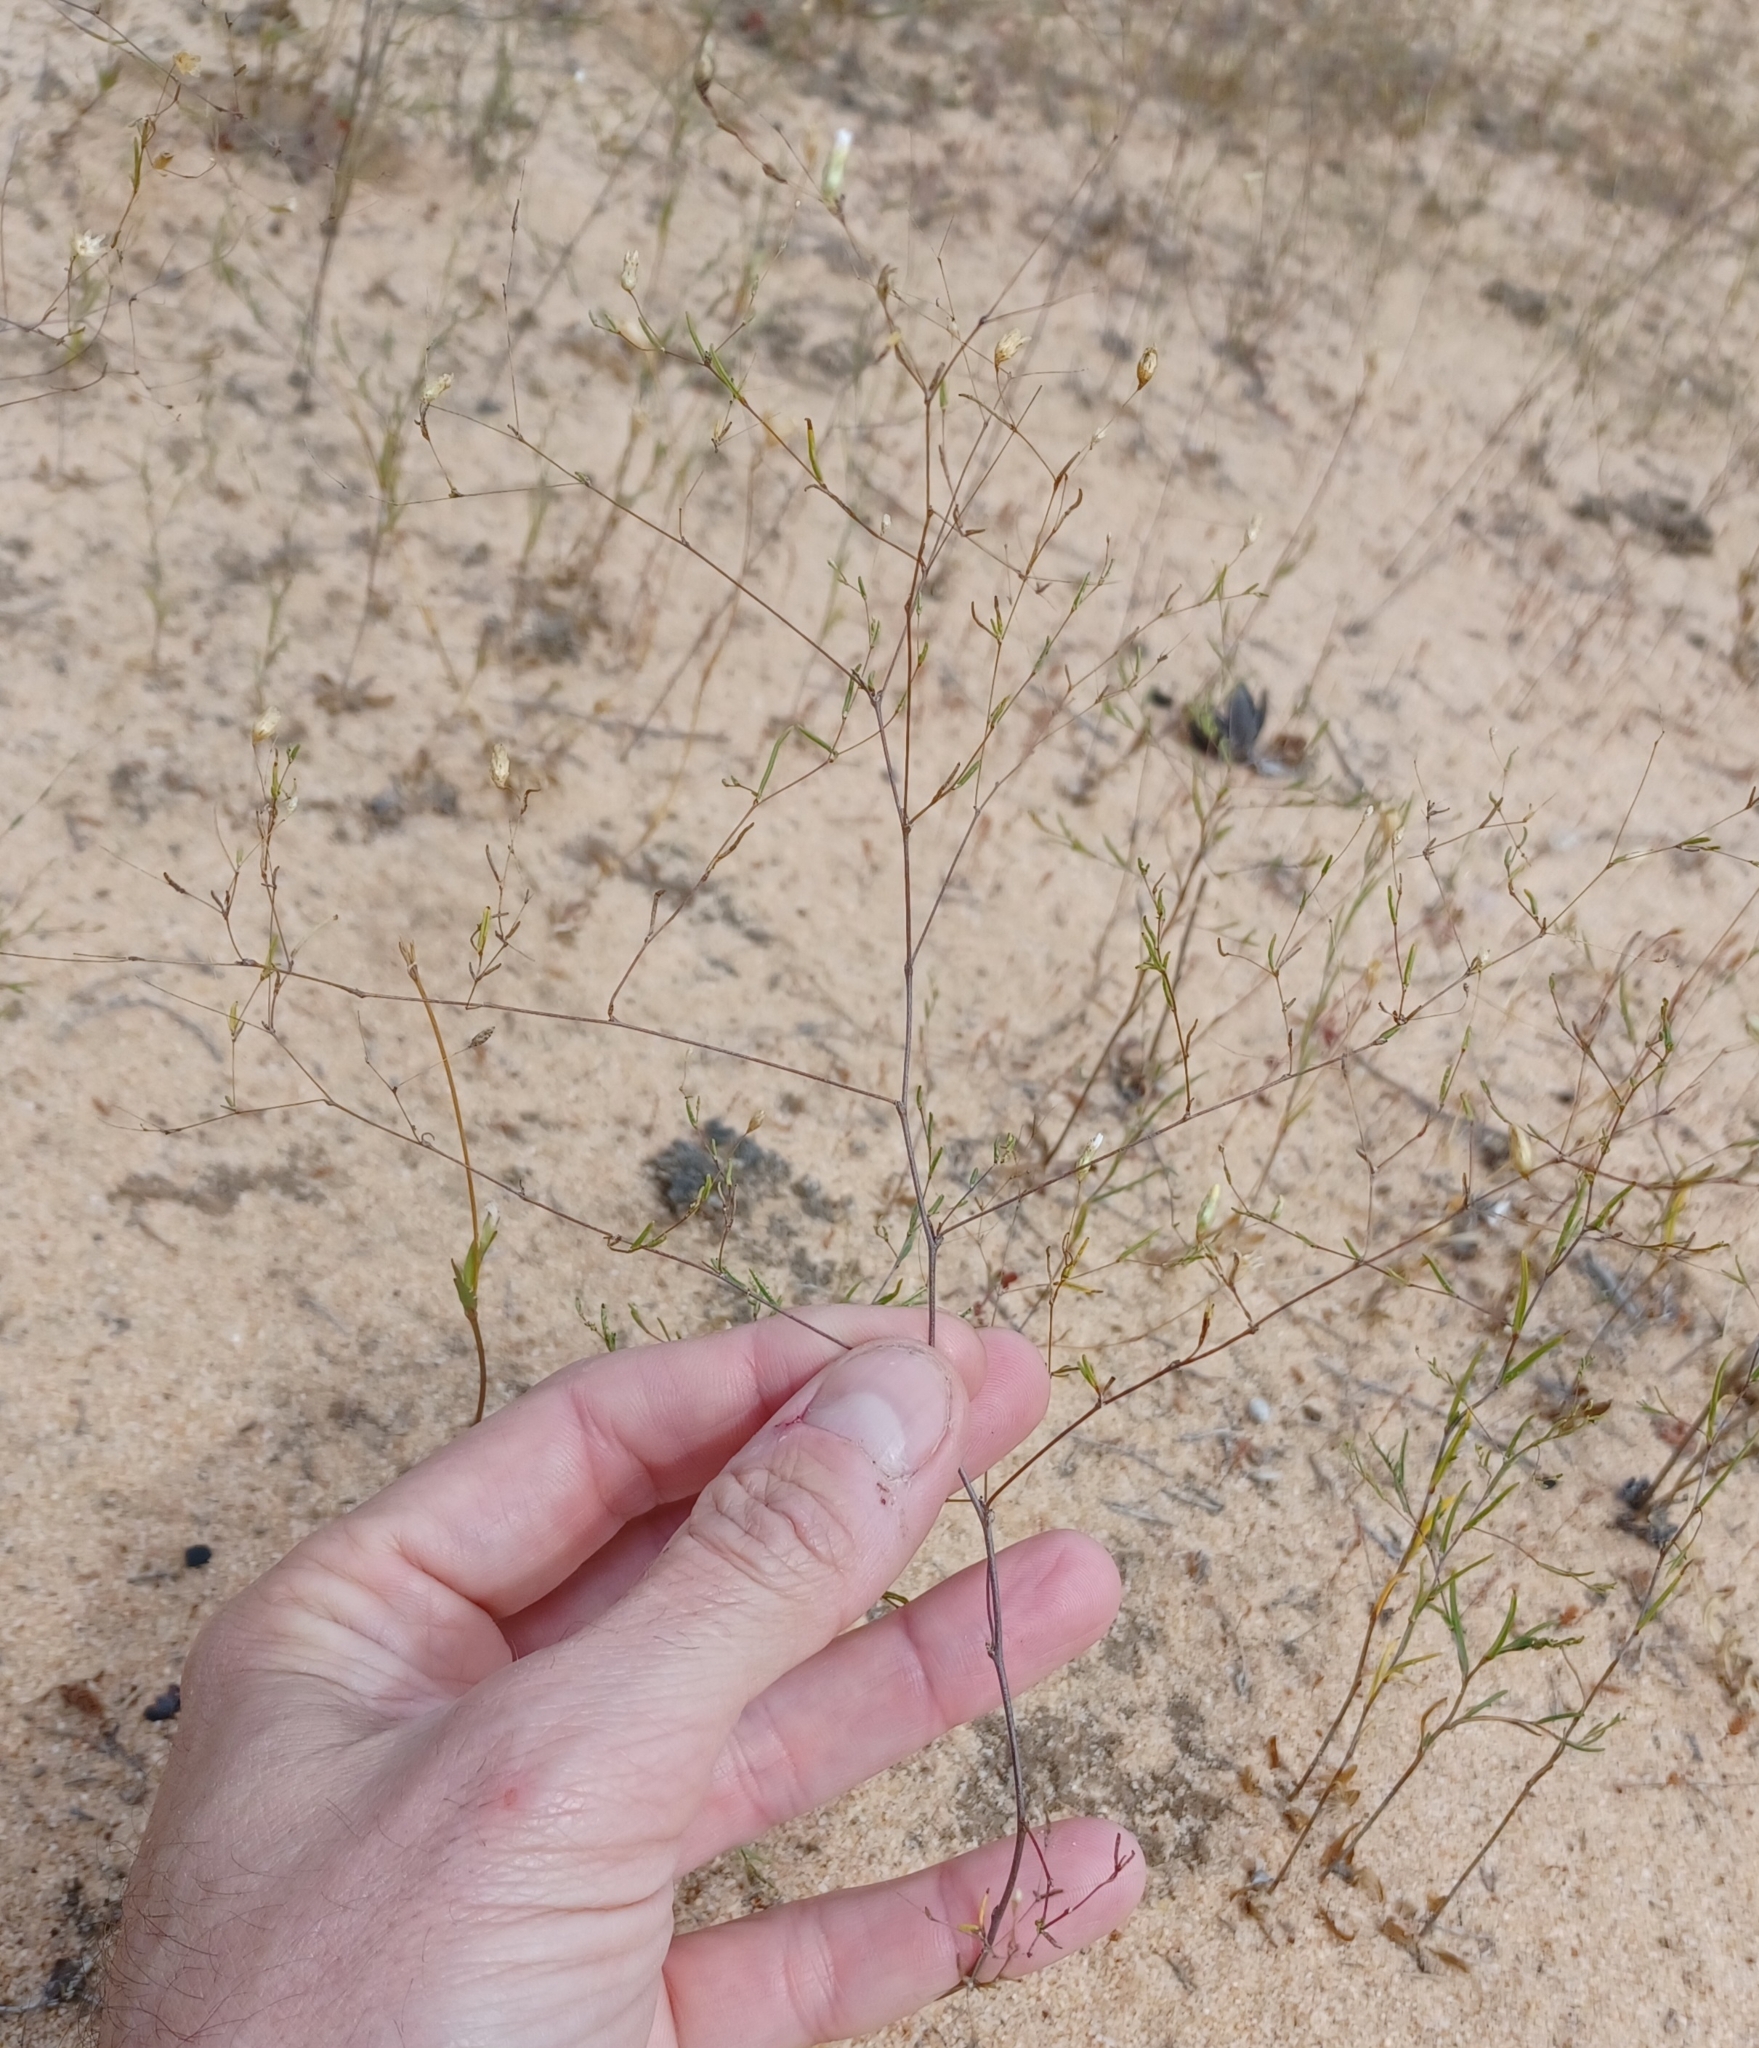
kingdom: Plantae
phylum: Tracheophyta
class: Magnoliopsida
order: Asterales
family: Asteraceae
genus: Siemssenia
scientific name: Siemssenia capillaris
